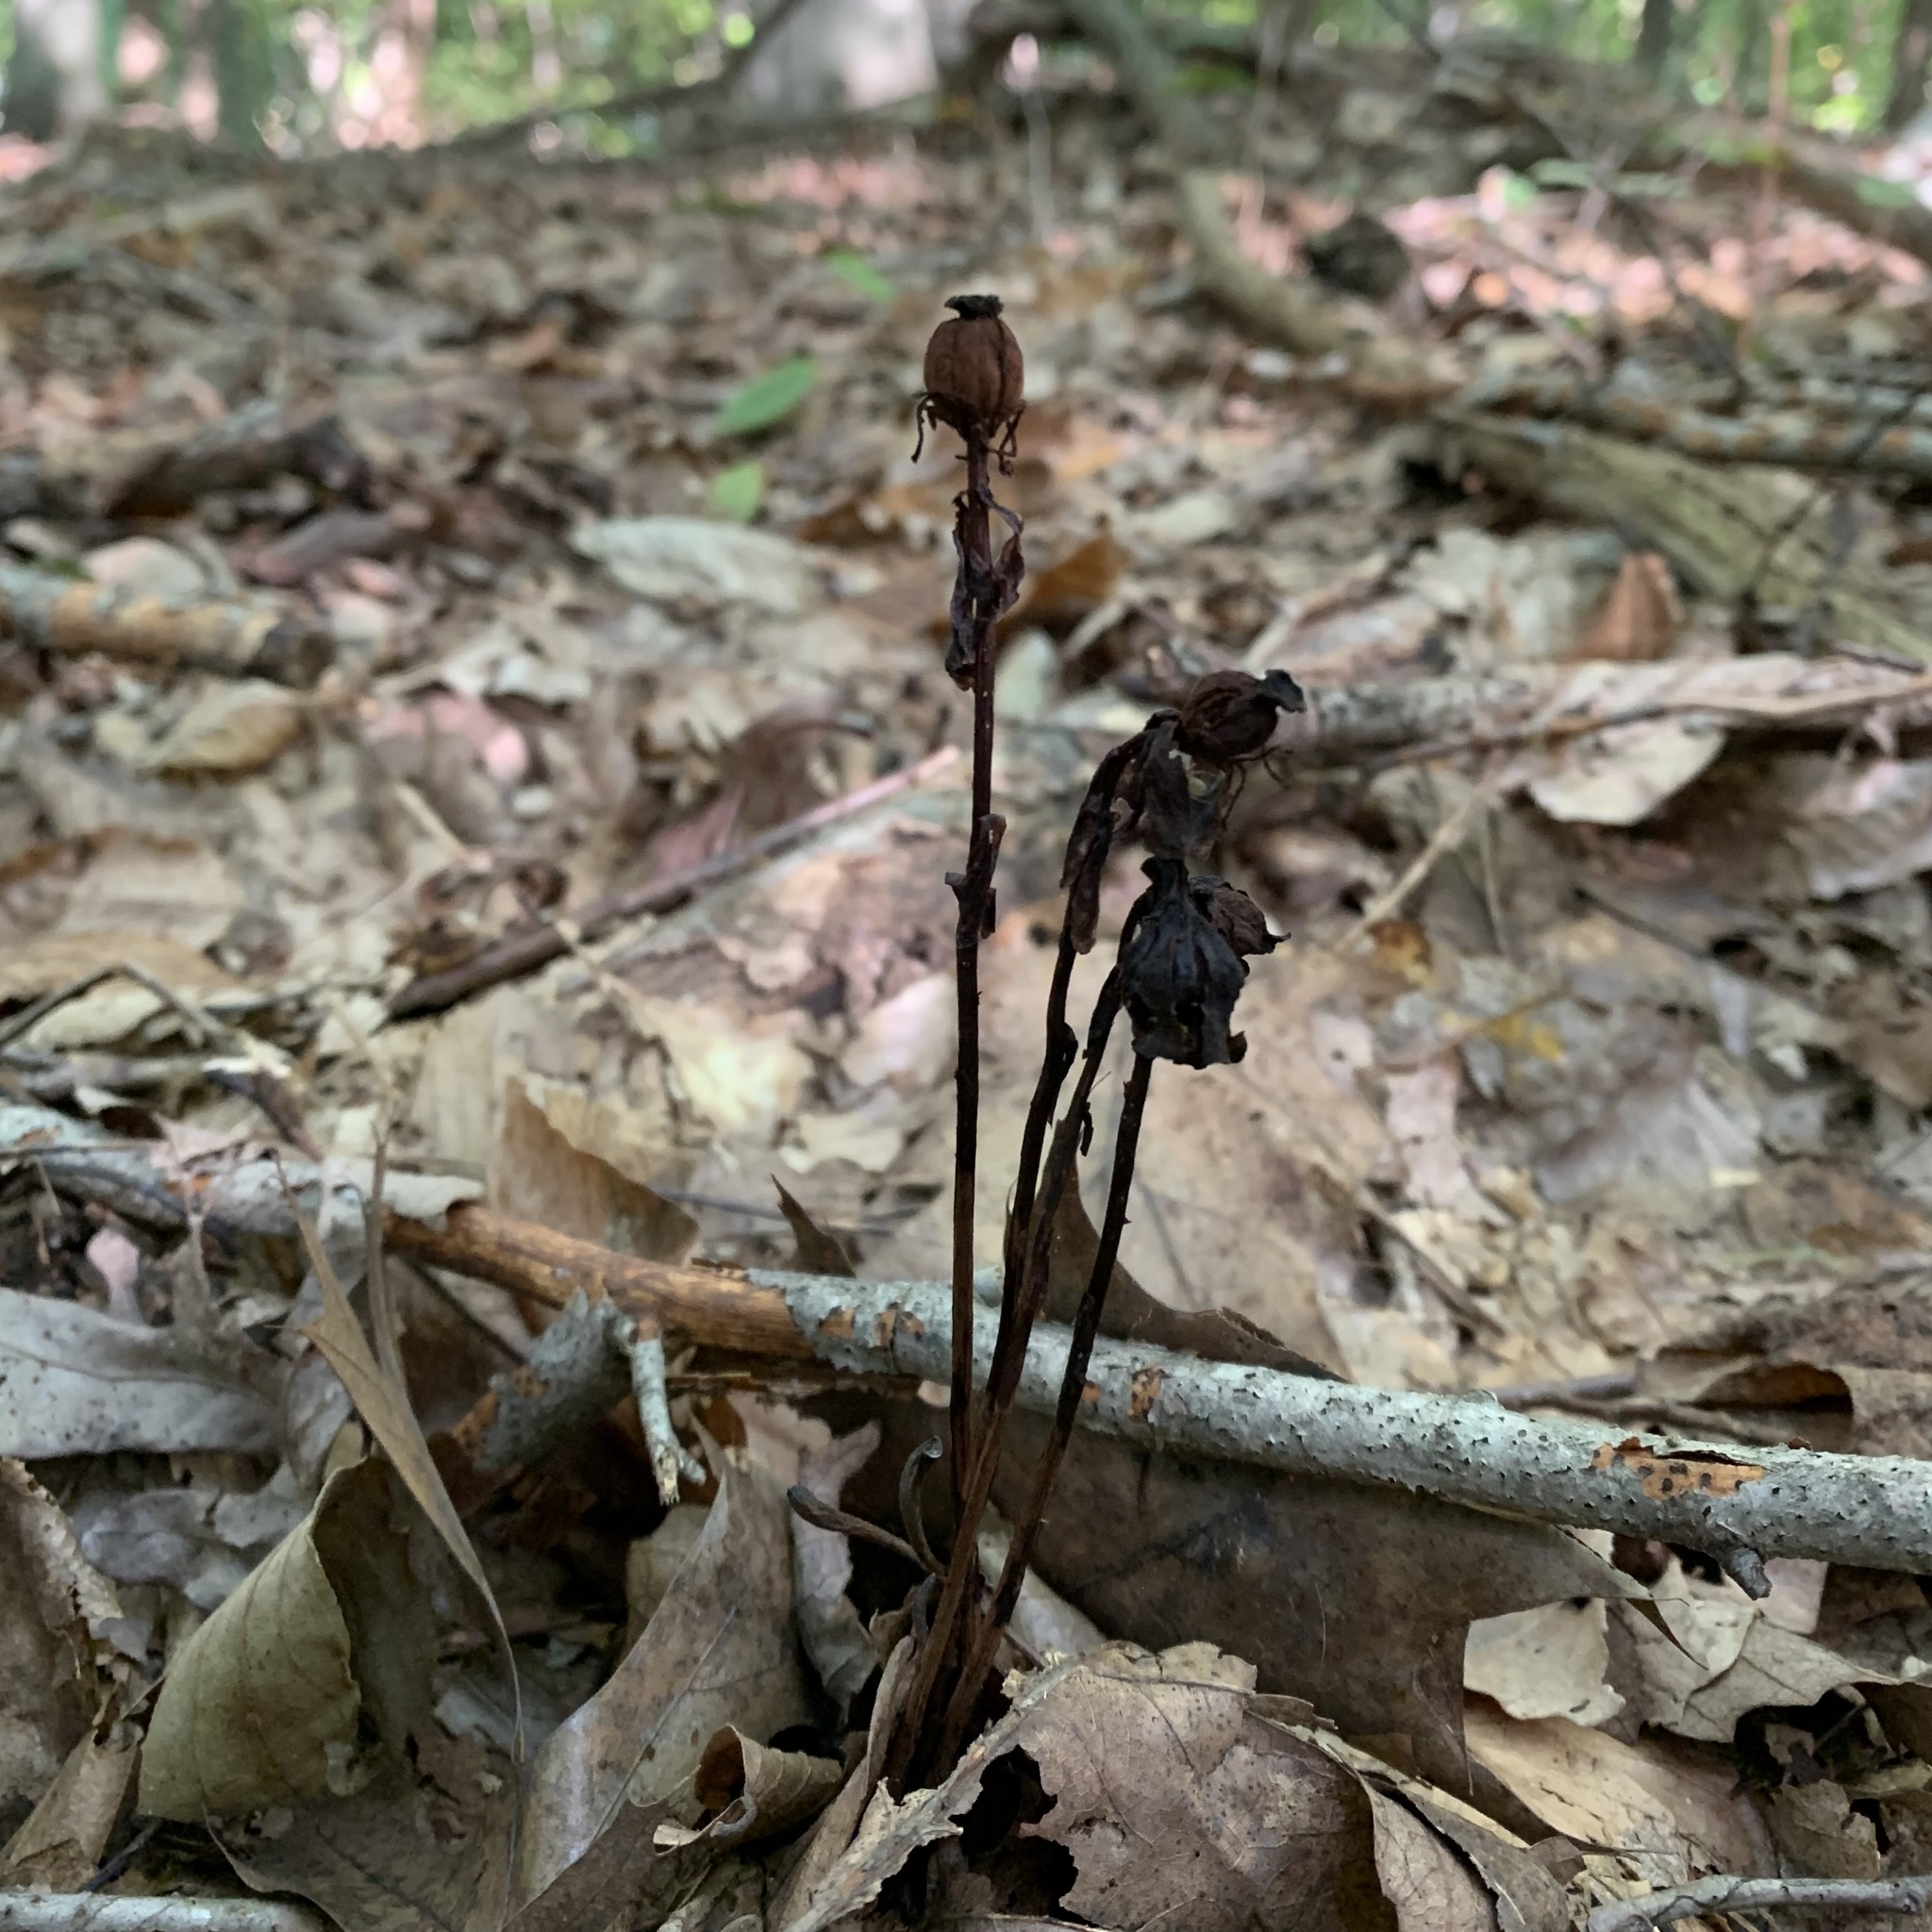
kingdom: Plantae
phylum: Tracheophyta
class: Magnoliopsida
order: Ericales
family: Ericaceae
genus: Monotropa
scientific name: Monotropa uniflora
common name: Convulsion root
